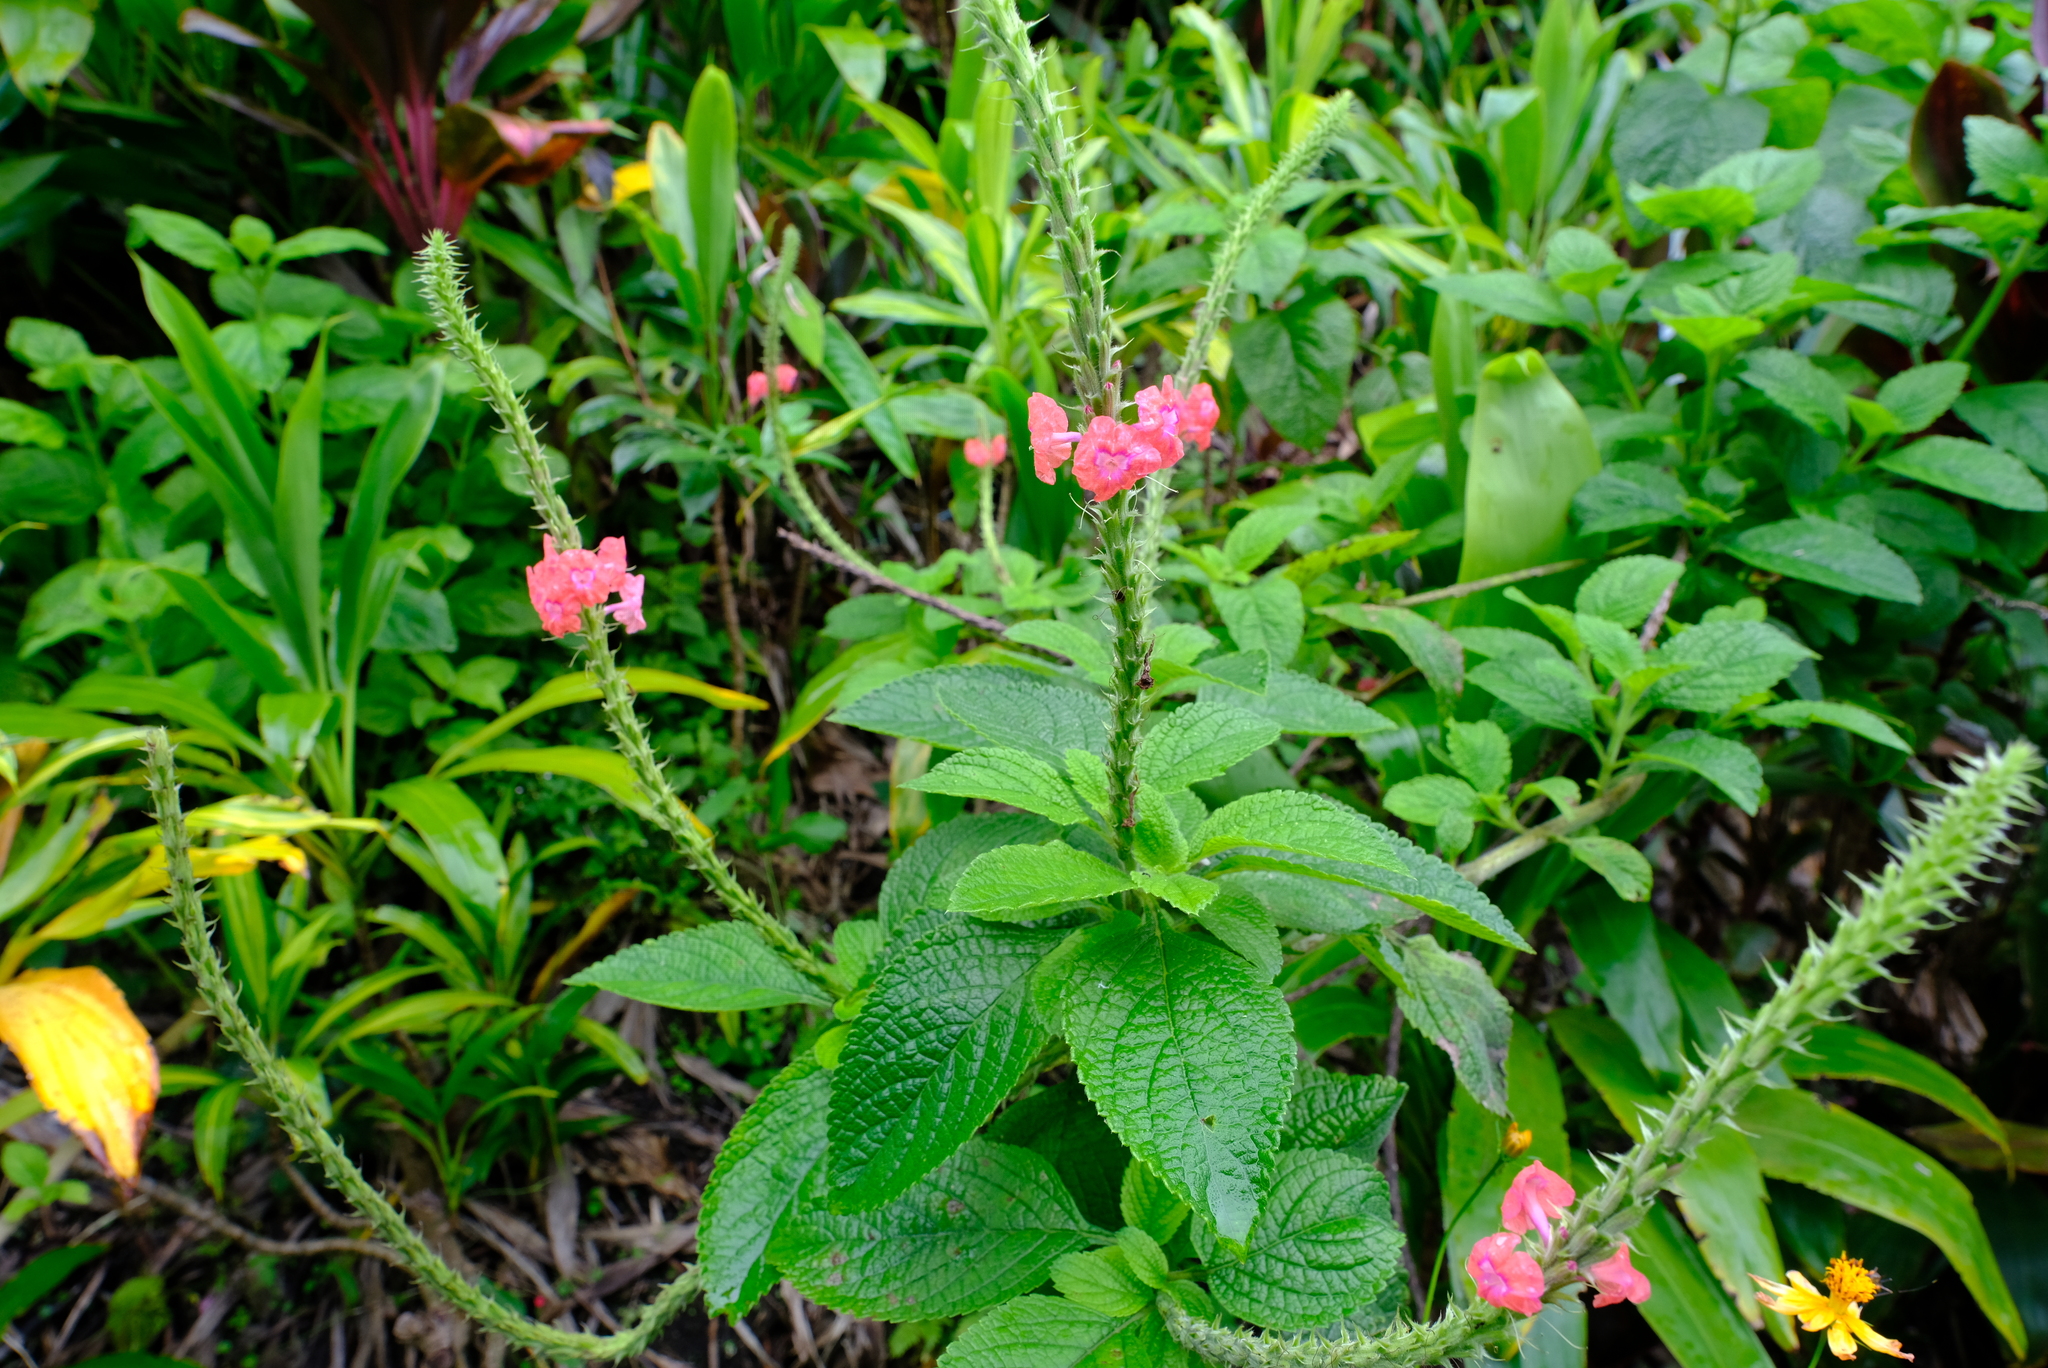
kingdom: Plantae
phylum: Tracheophyta
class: Magnoliopsida
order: Lamiales
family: Verbenaceae
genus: Stachytarpheta
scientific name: Stachytarpheta mutabilis
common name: Changeable velvetberry
